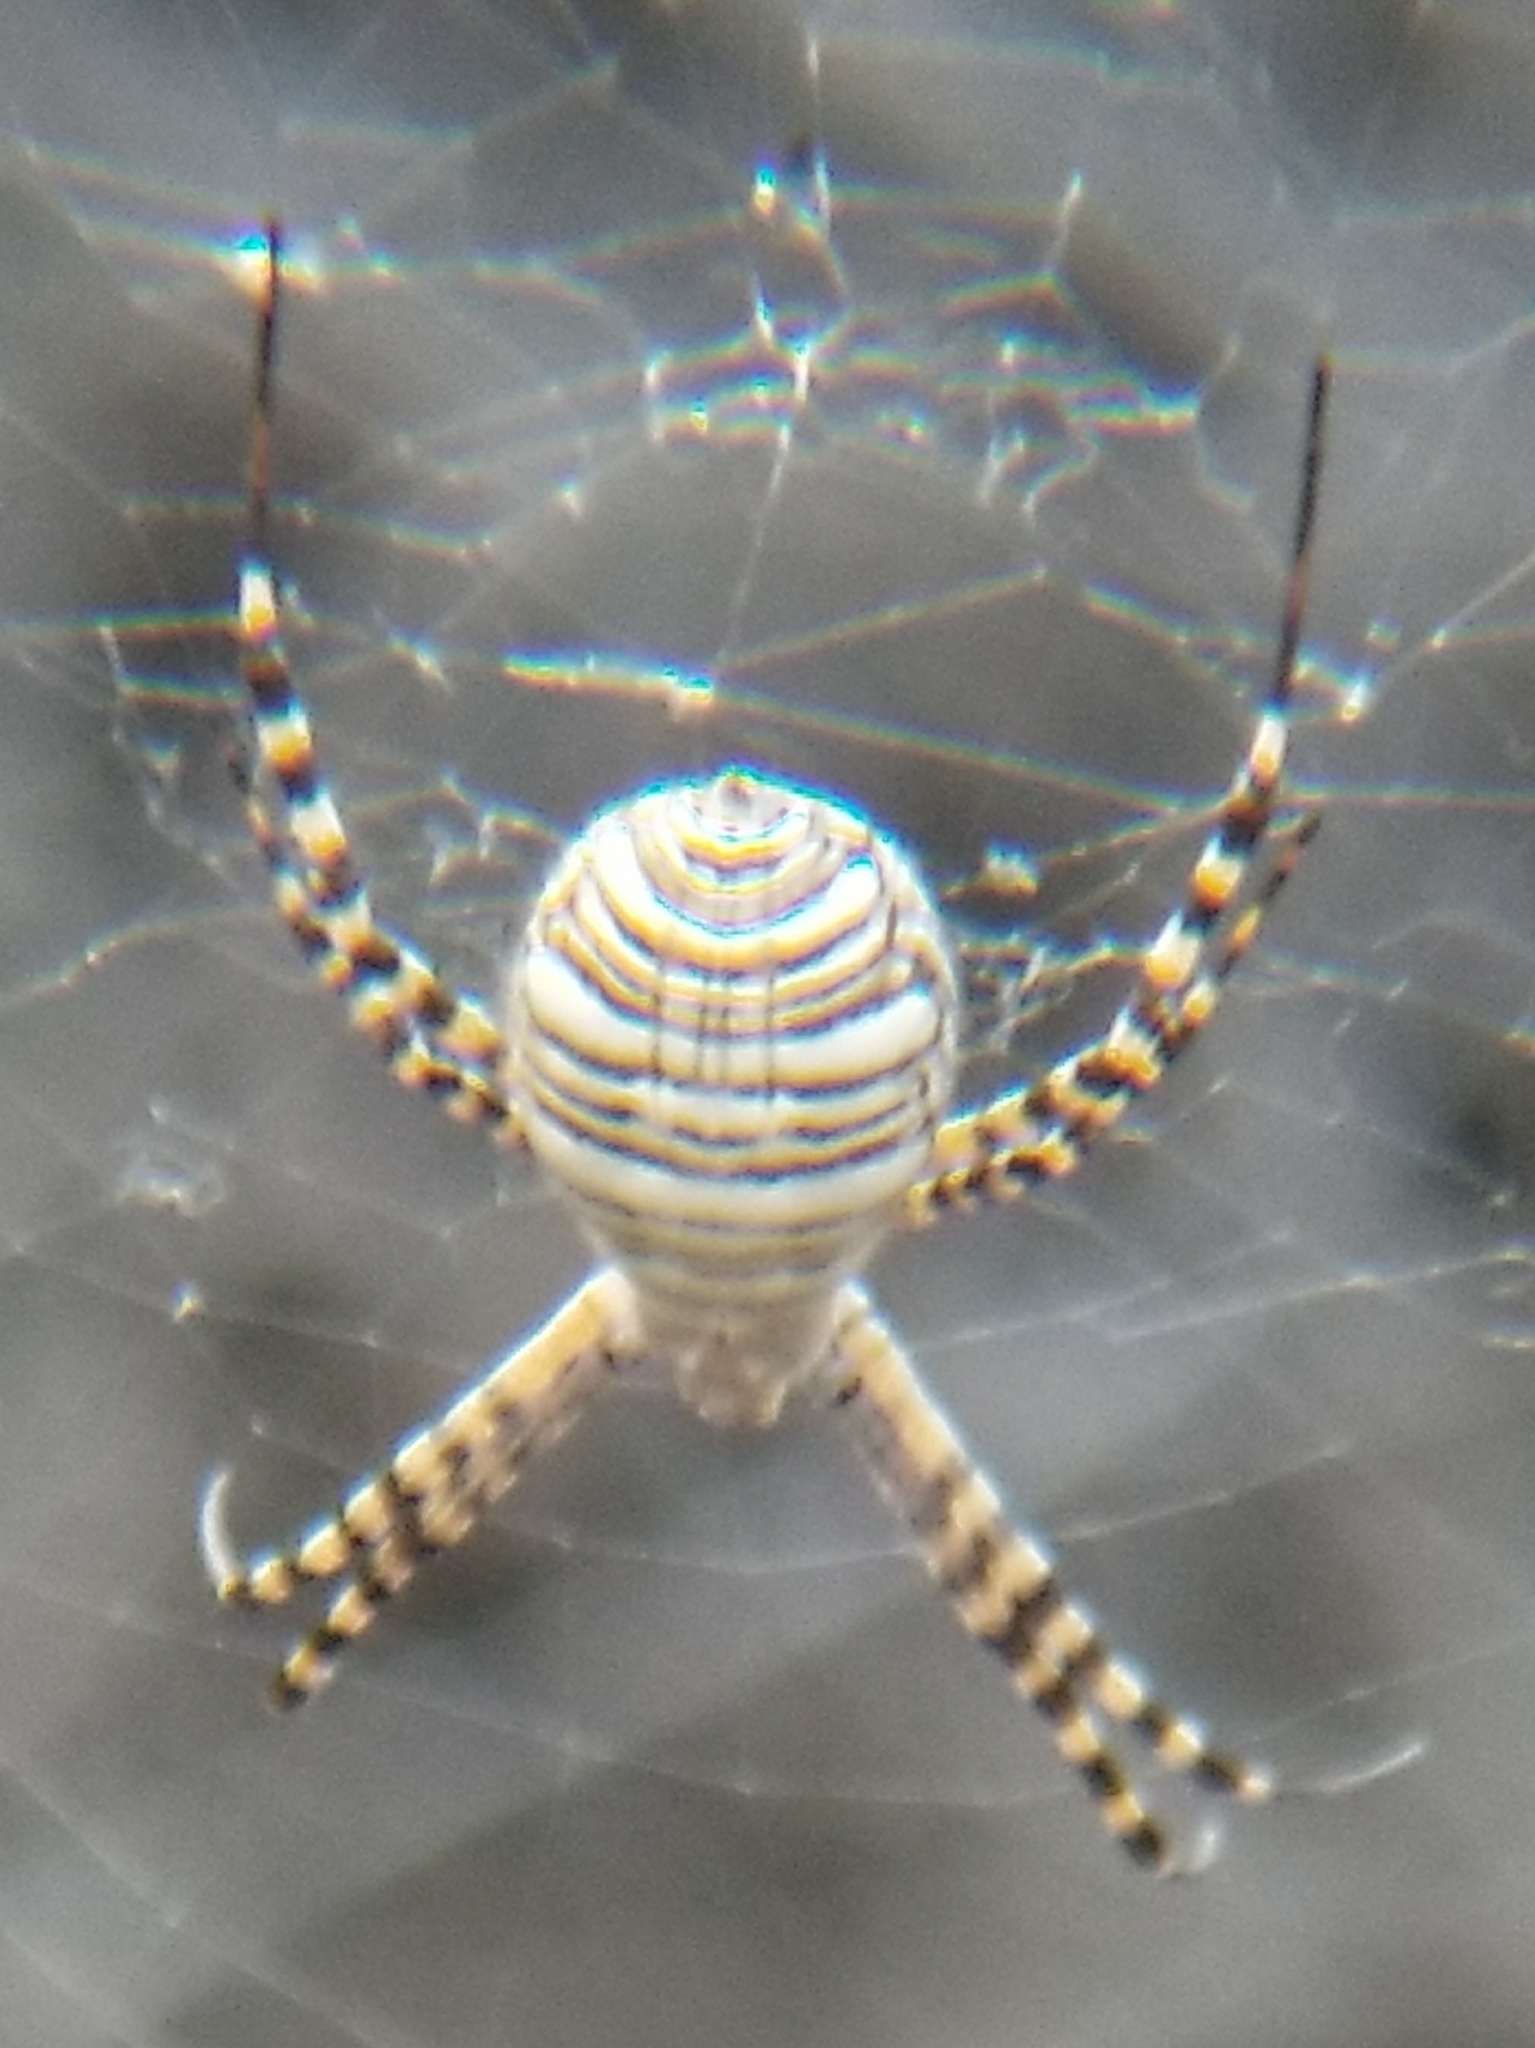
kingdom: Animalia
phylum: Arthropoda
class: Arachnida
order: Araneae
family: Araneidae
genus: Argiope
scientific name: Argiope trifasciata
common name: Banded garden spider
